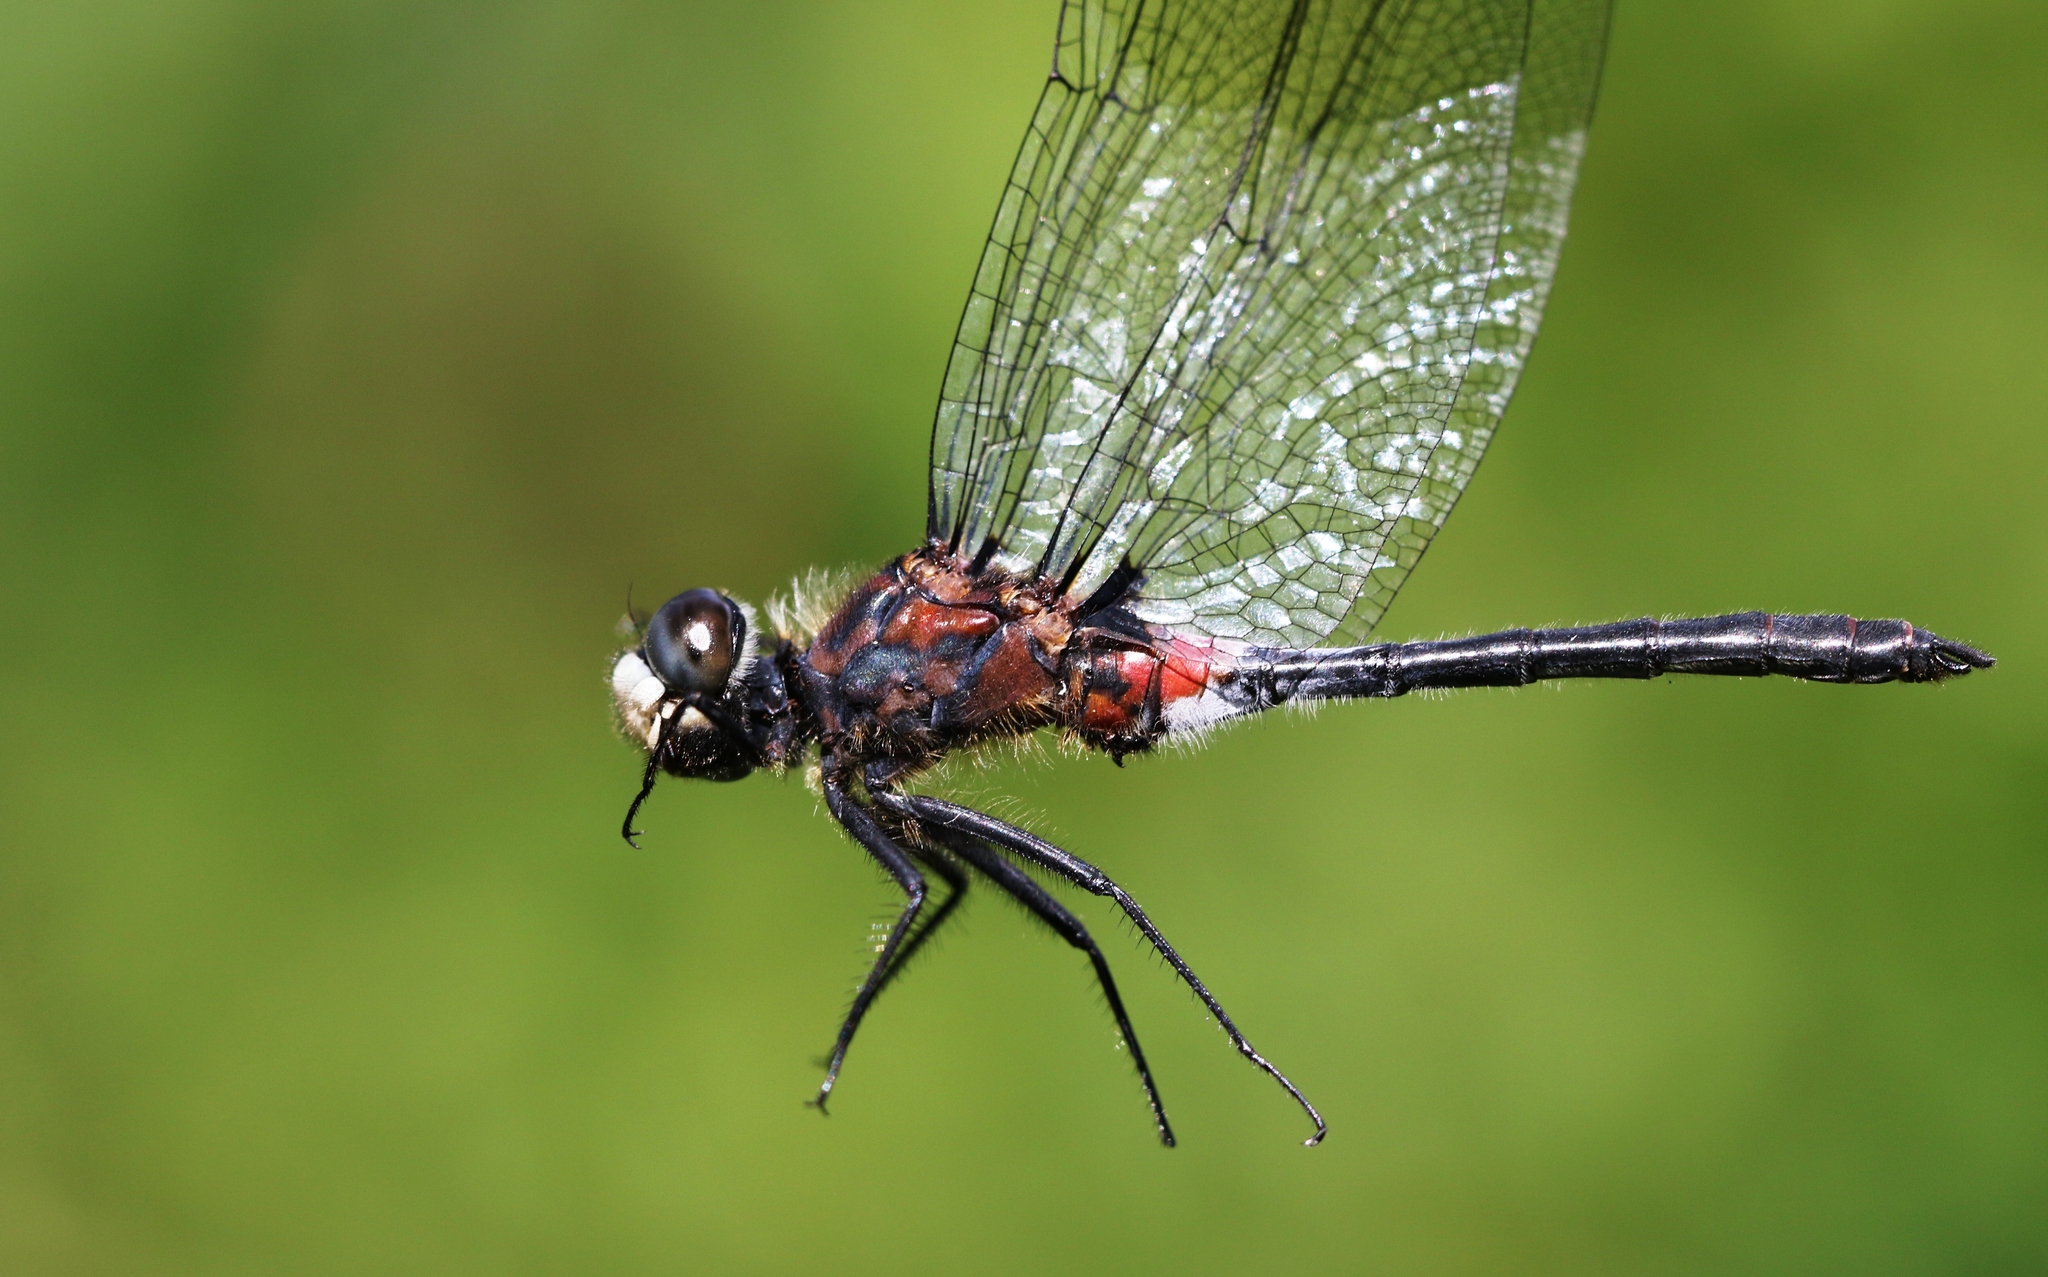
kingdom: Animalia
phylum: Arthropoda
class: Insecta
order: Odonata
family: Libellulidae
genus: Leucorrhinia
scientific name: Leucorrhinia proxima
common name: Belted whiteface
